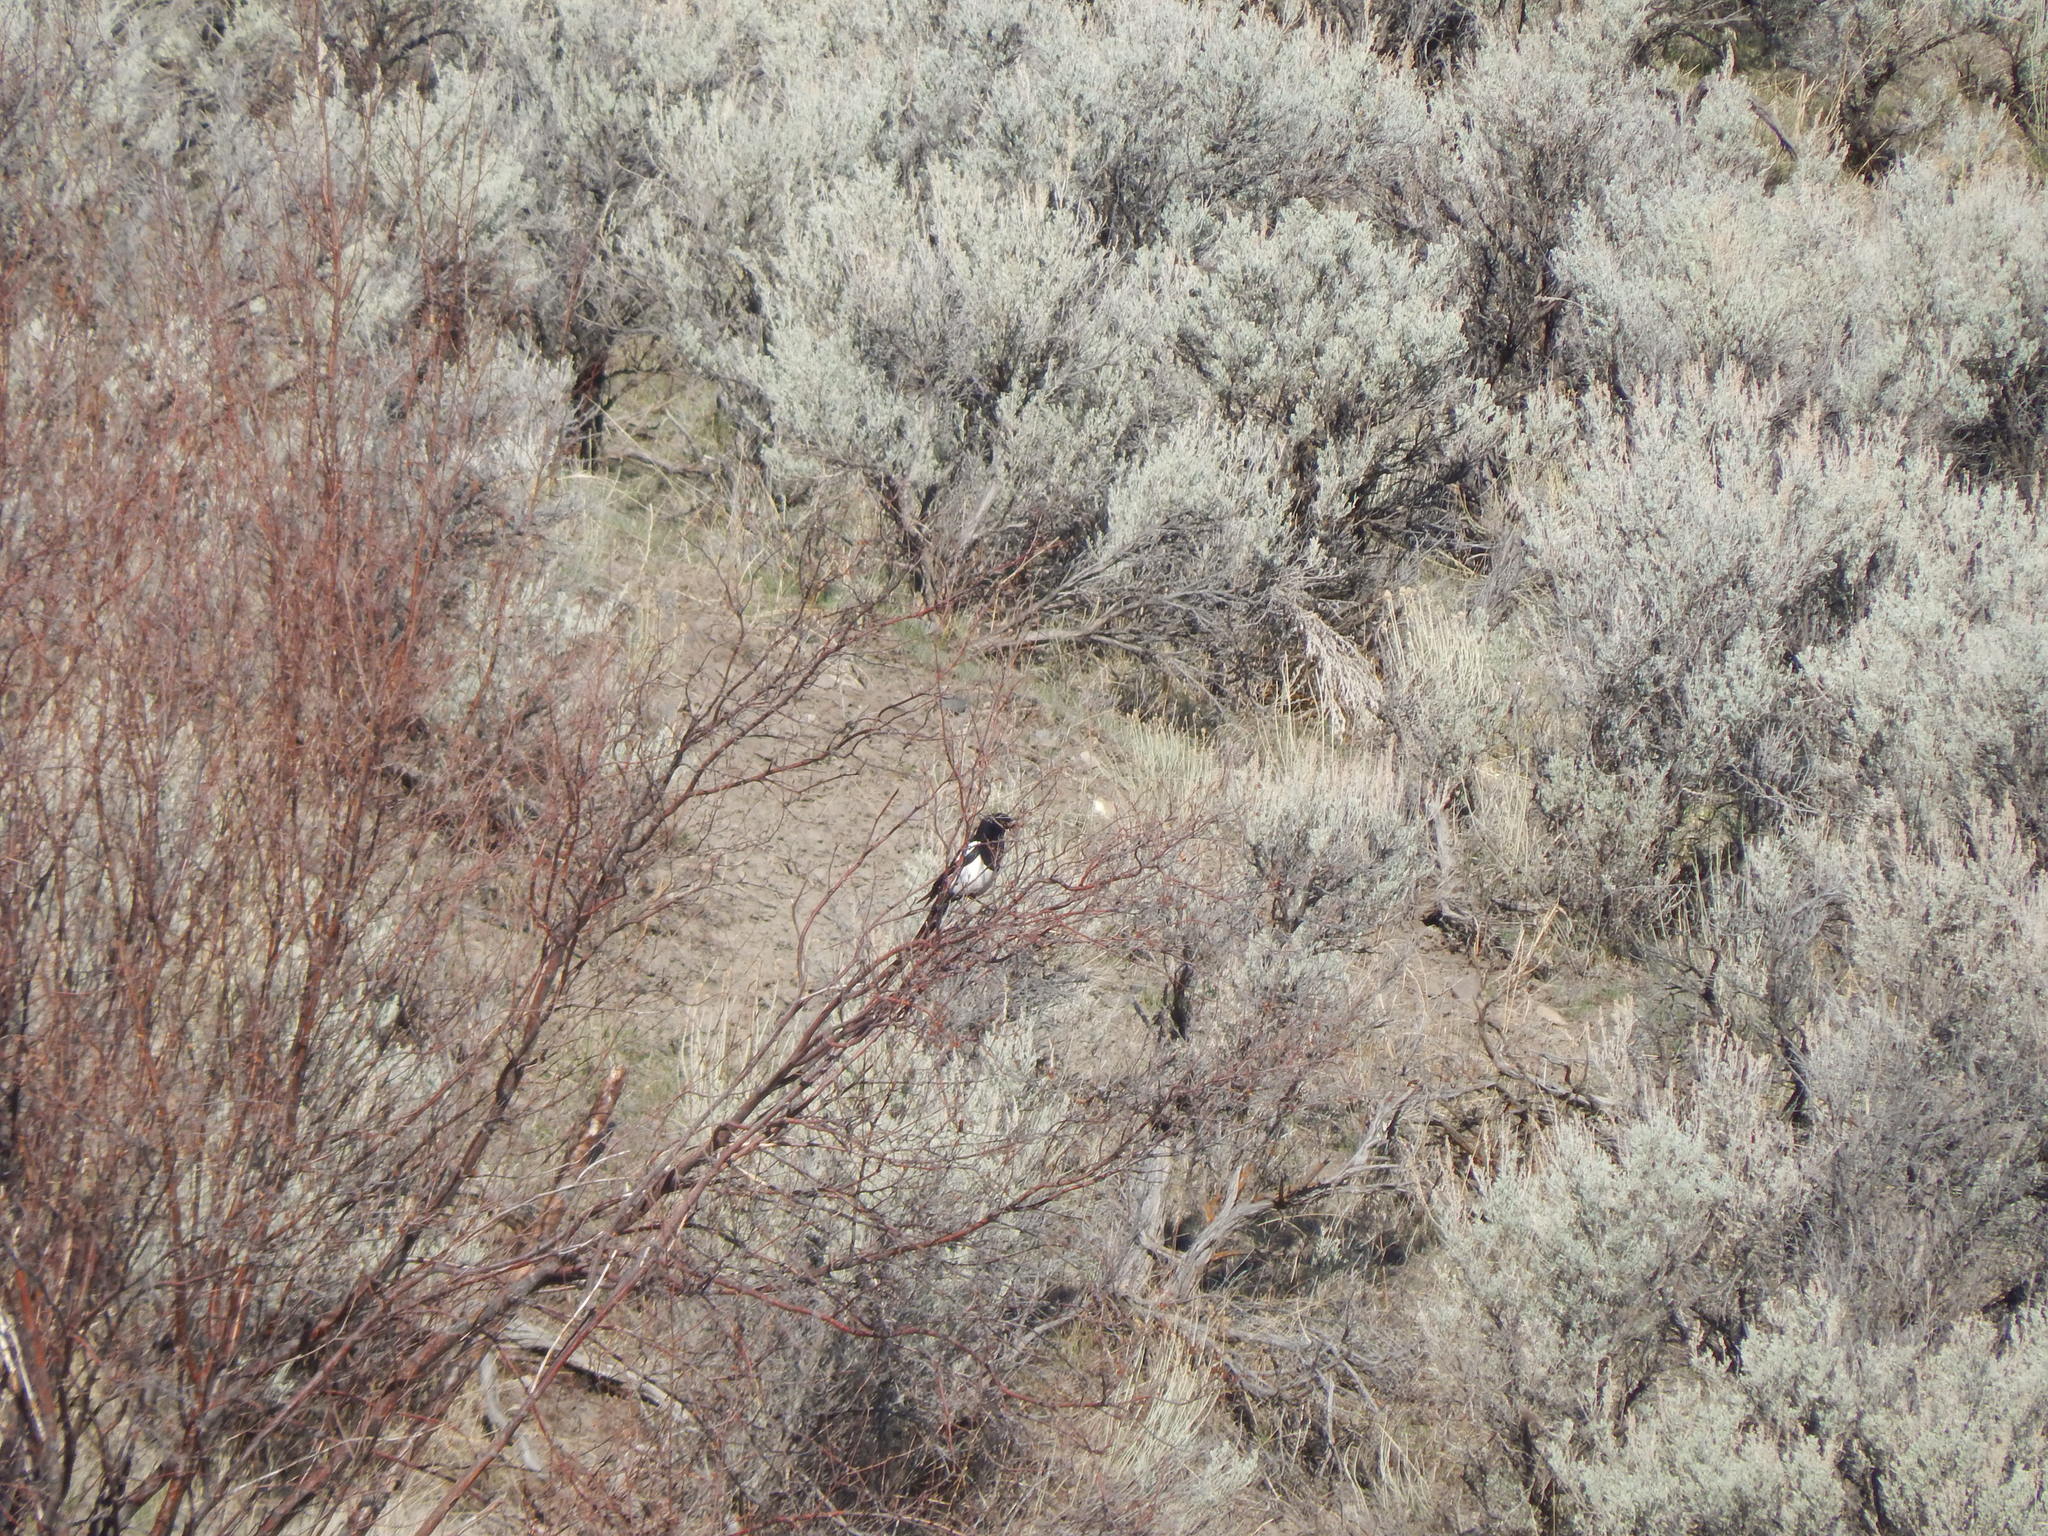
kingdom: Animalia
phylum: Chordata
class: Aves
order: Passeriformes
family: Corvidae
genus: Pica
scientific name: Pica hudsonia
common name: Black-billed magpie
